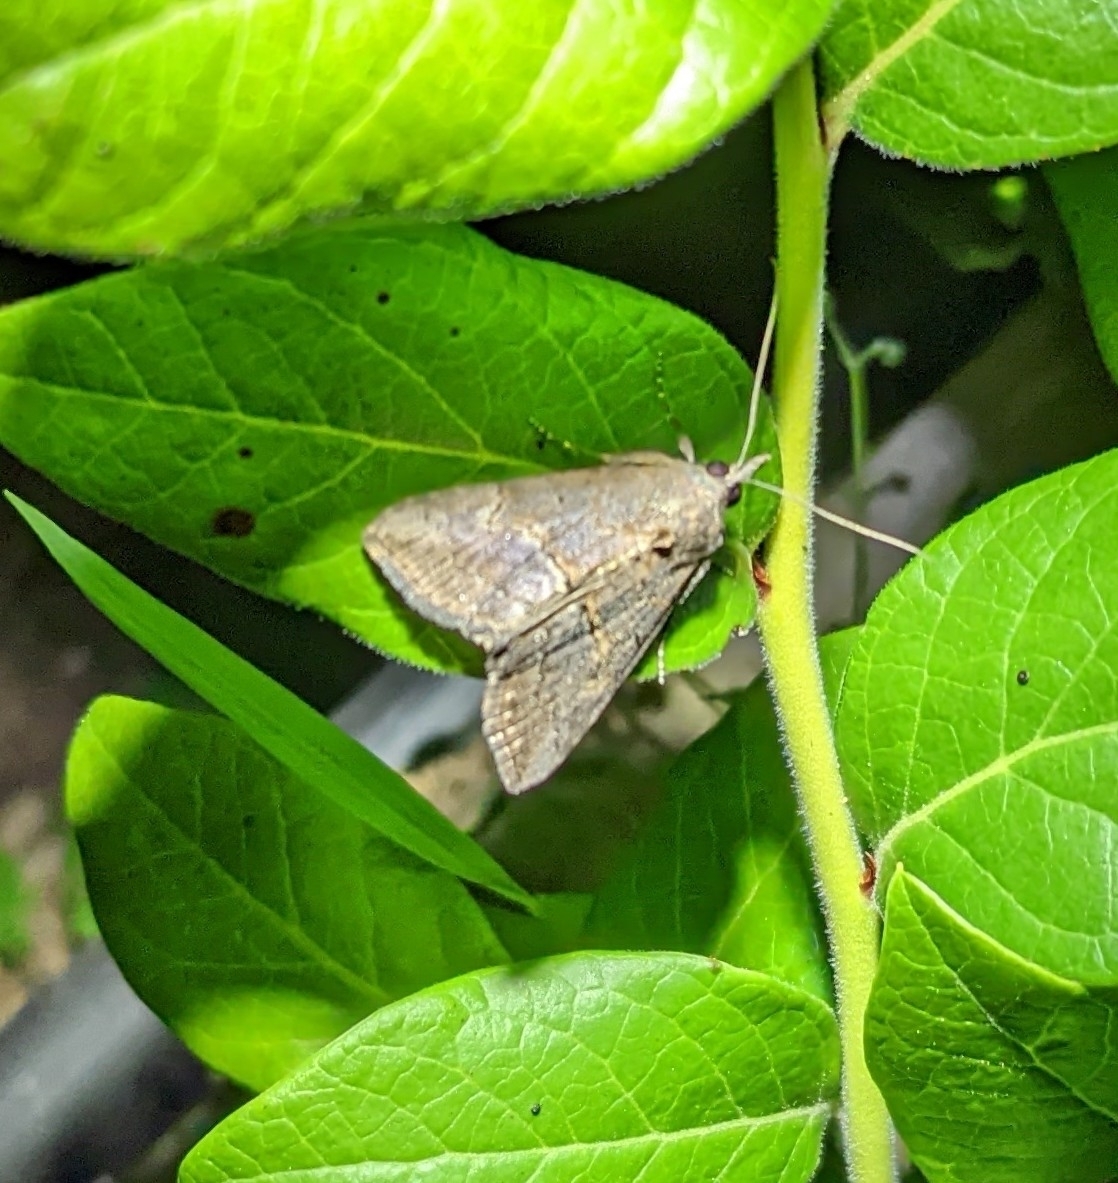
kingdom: Animalia
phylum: Arthropoda
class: Insecta
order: Lepidoptera
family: Erebidae
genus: Hypena
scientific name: Hypena scabra
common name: Green cloverworm
